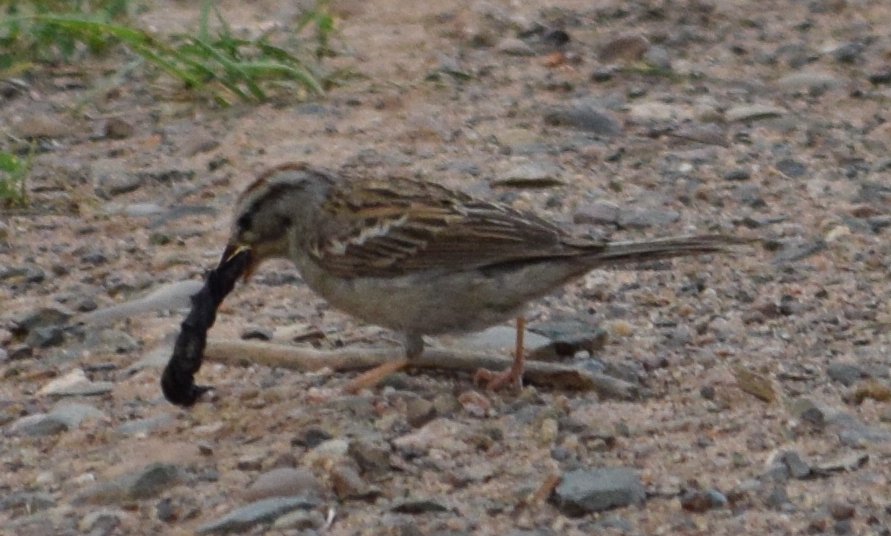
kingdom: Animalia
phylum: Chordata
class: Aves
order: Passeriformes
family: Passerellidae
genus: Spizella
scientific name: Spizella passerina
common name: Chipping sparrow
